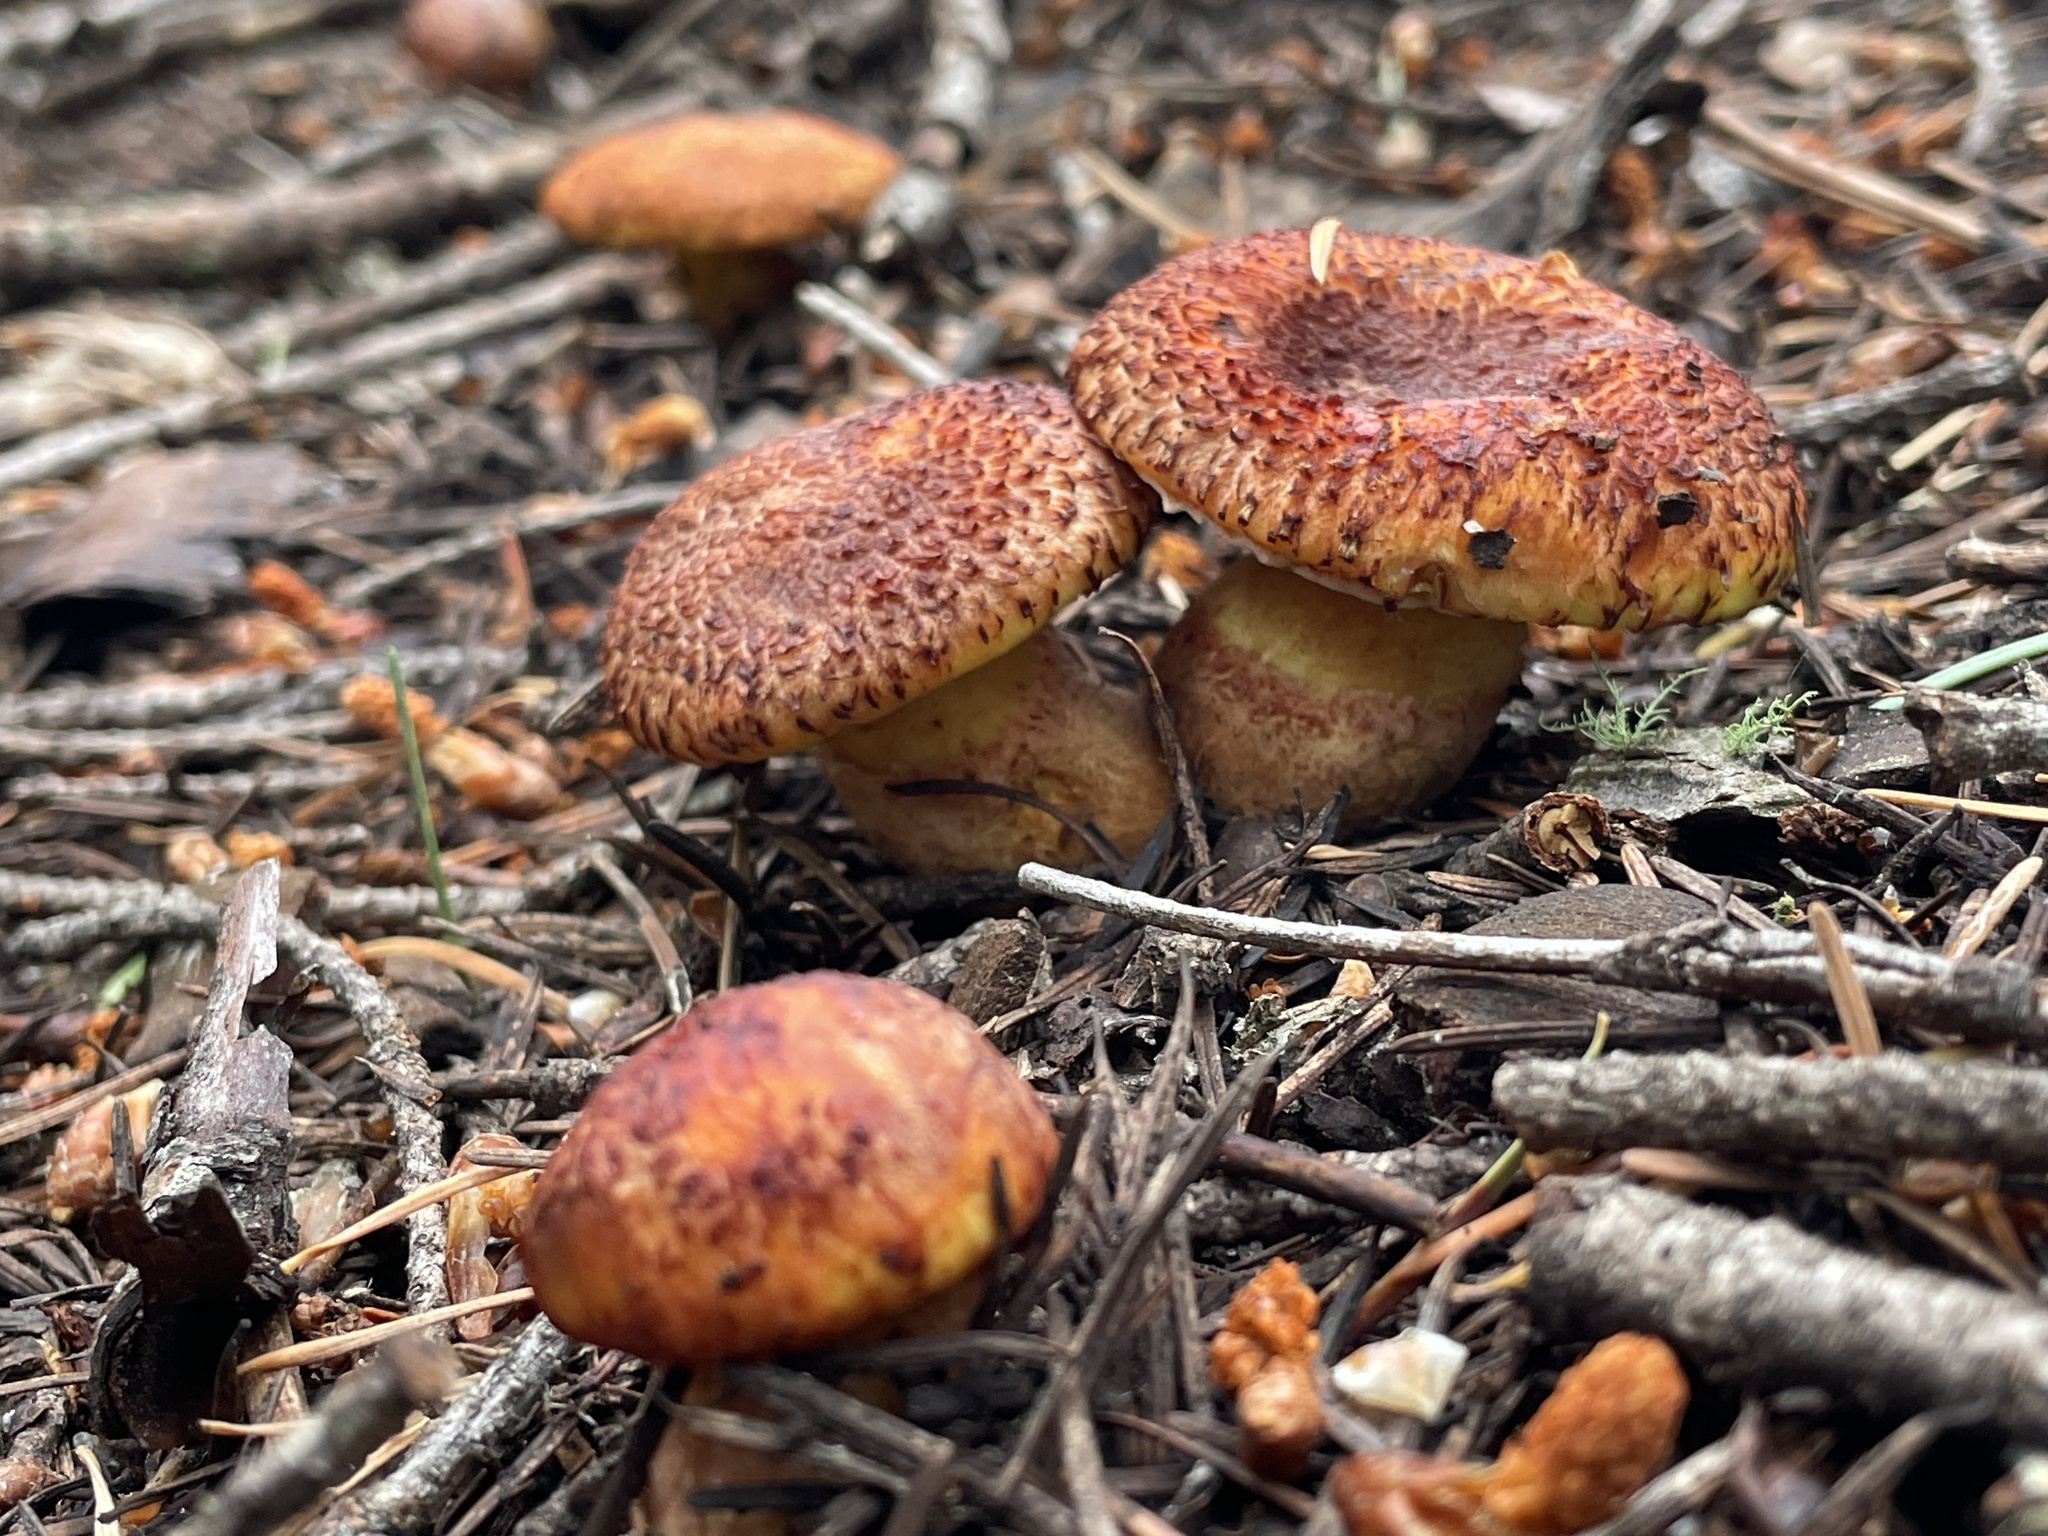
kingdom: Fungi
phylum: Basidiomycota
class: Agaricomycetes
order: Boletales
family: Suillaceae
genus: Suillus
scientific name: Suillus lakei
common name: Western painted suillus
